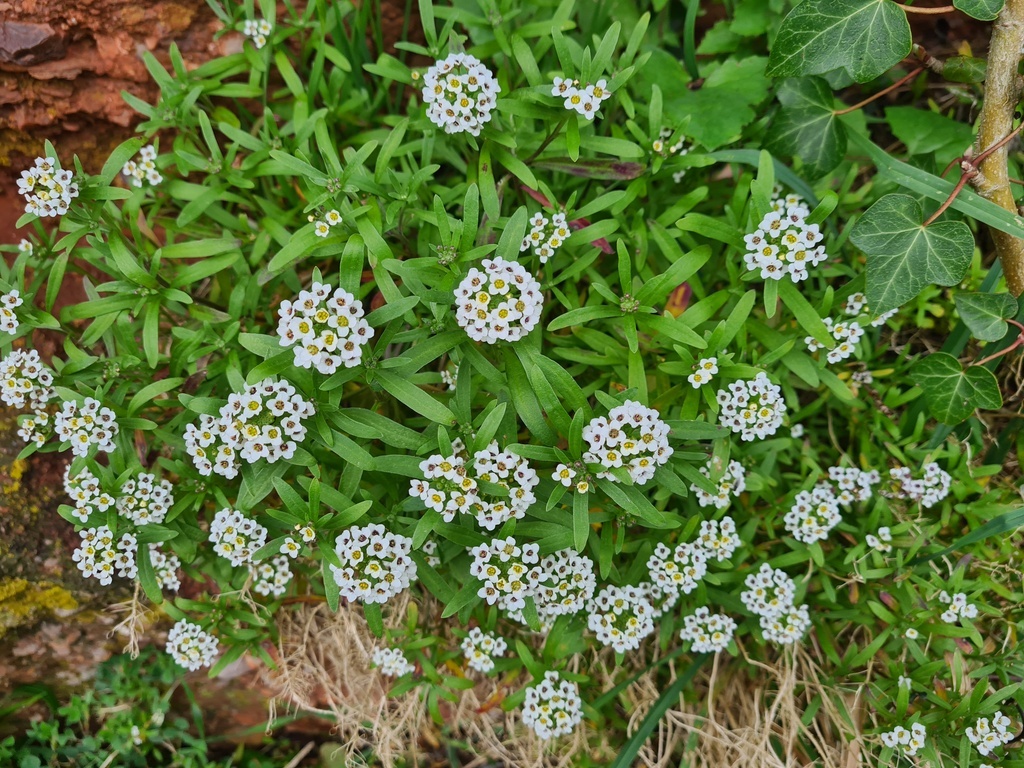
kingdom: Plantae
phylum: Tracheophyta
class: Magnoliopsida
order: Brassicales
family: Brassicaceae
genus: Lobularia
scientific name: Lobularia maritima
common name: Sweet alison
